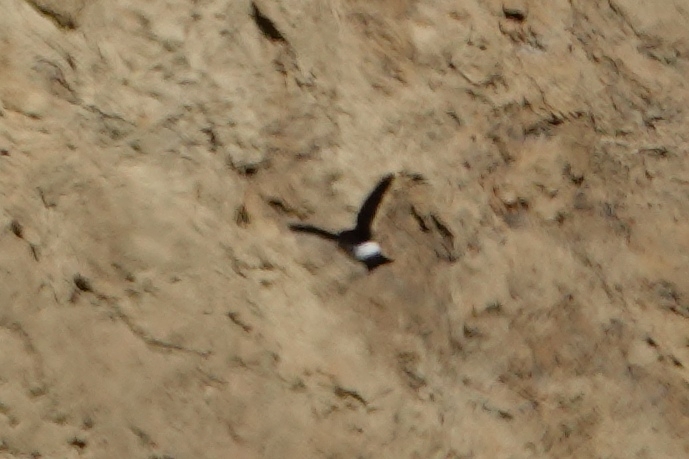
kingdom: Animalia
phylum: Chordata
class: Aves
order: Passeriformes
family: Hirundinidae
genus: Delichon
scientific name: Delichon urbicum
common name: Common house martin
